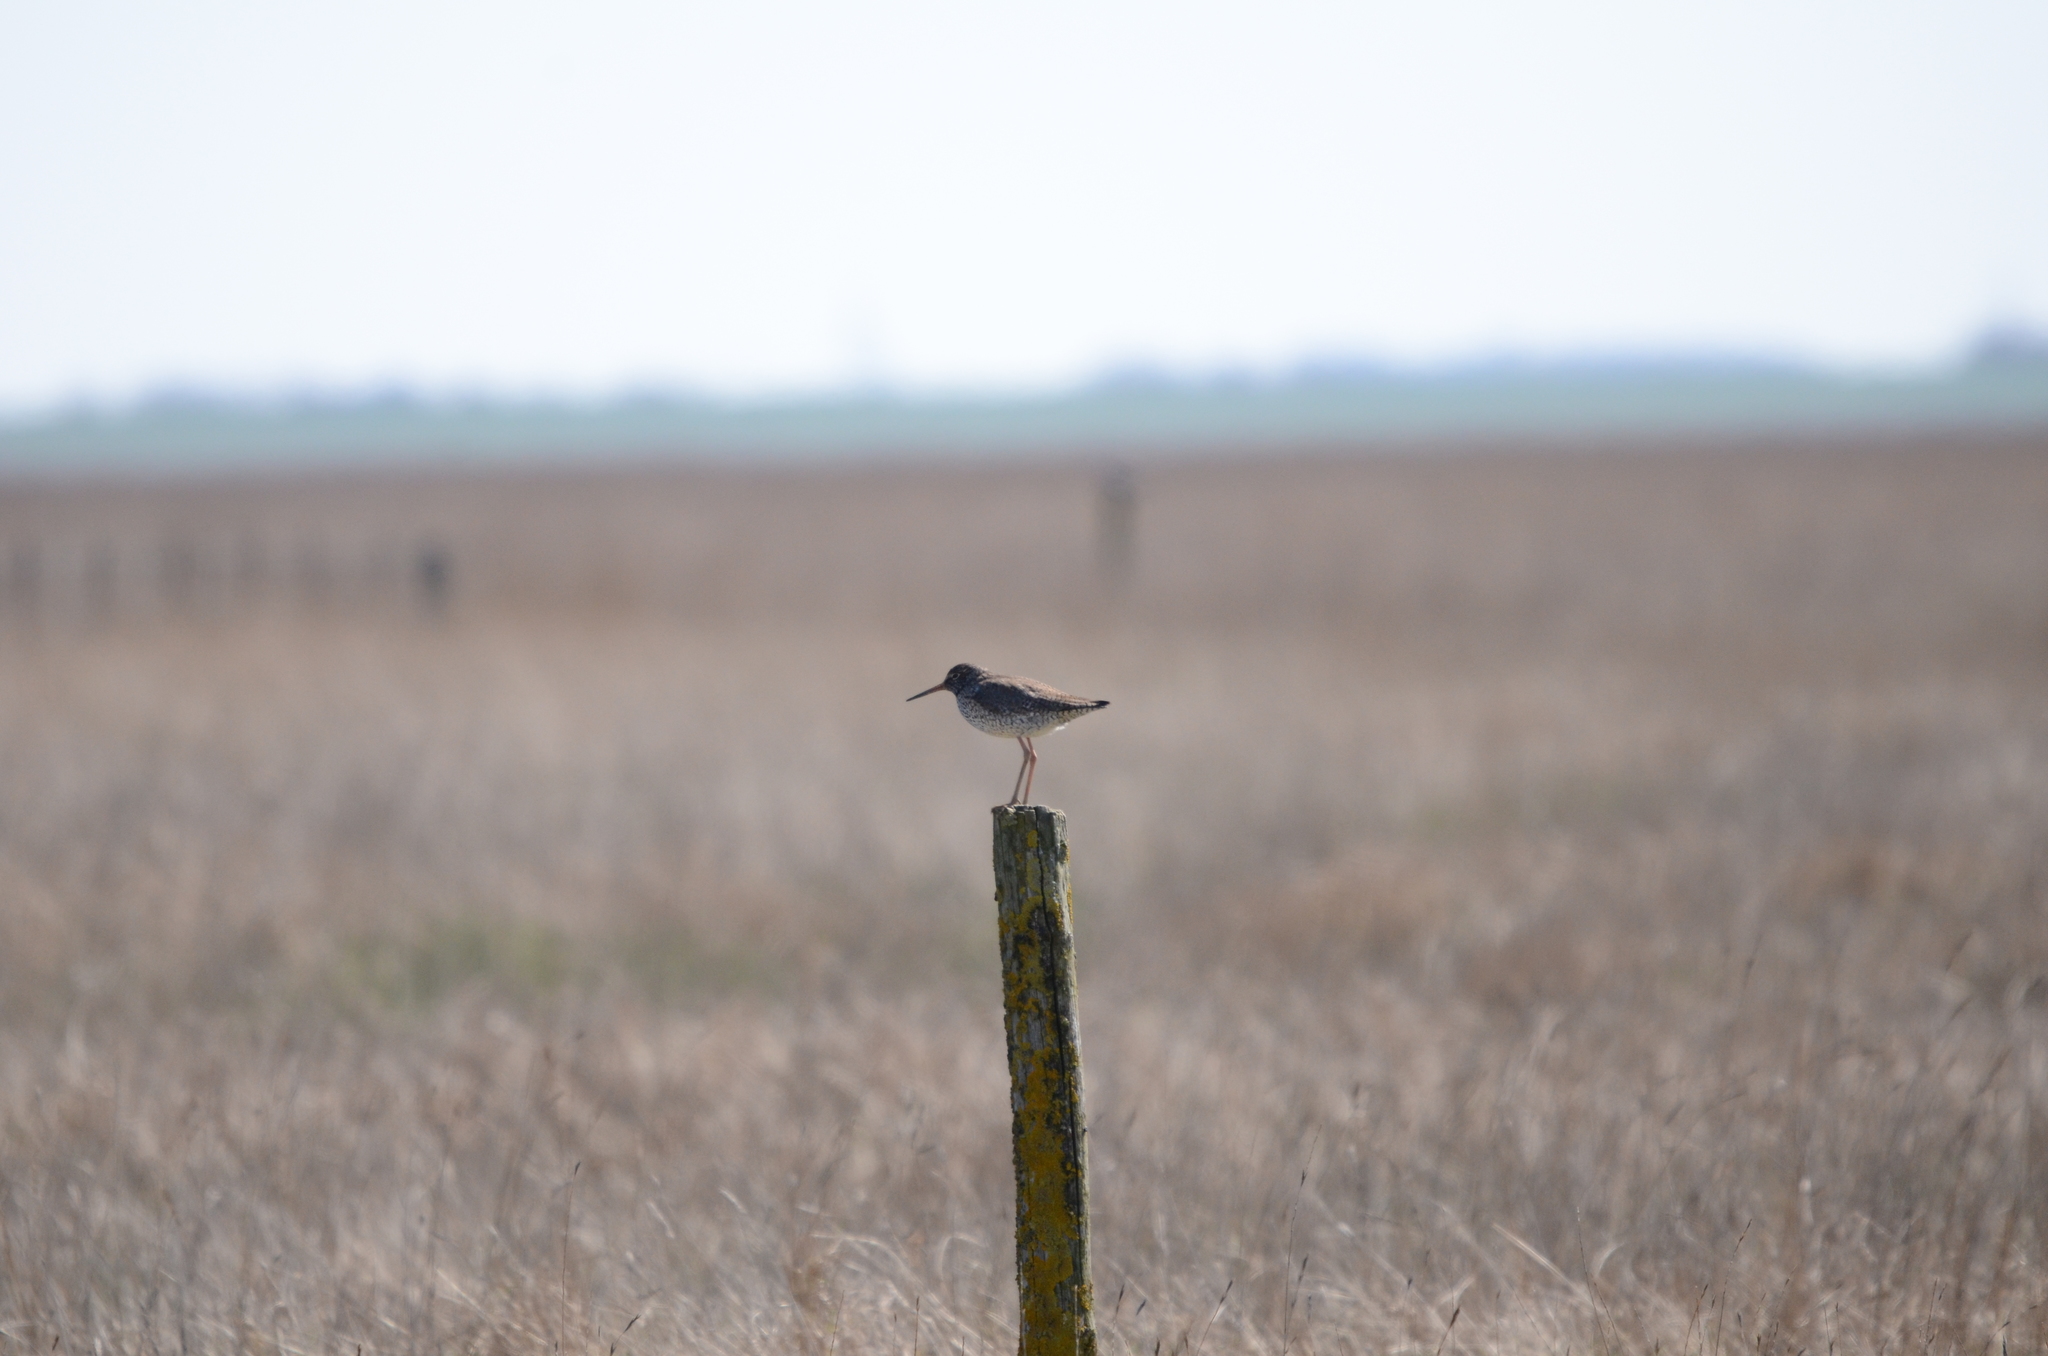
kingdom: Animalia
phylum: Chordata
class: Aves
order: Charadriiformes
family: Scolopacidae
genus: Tringa
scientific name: Tringa totanus
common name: Common redshank
